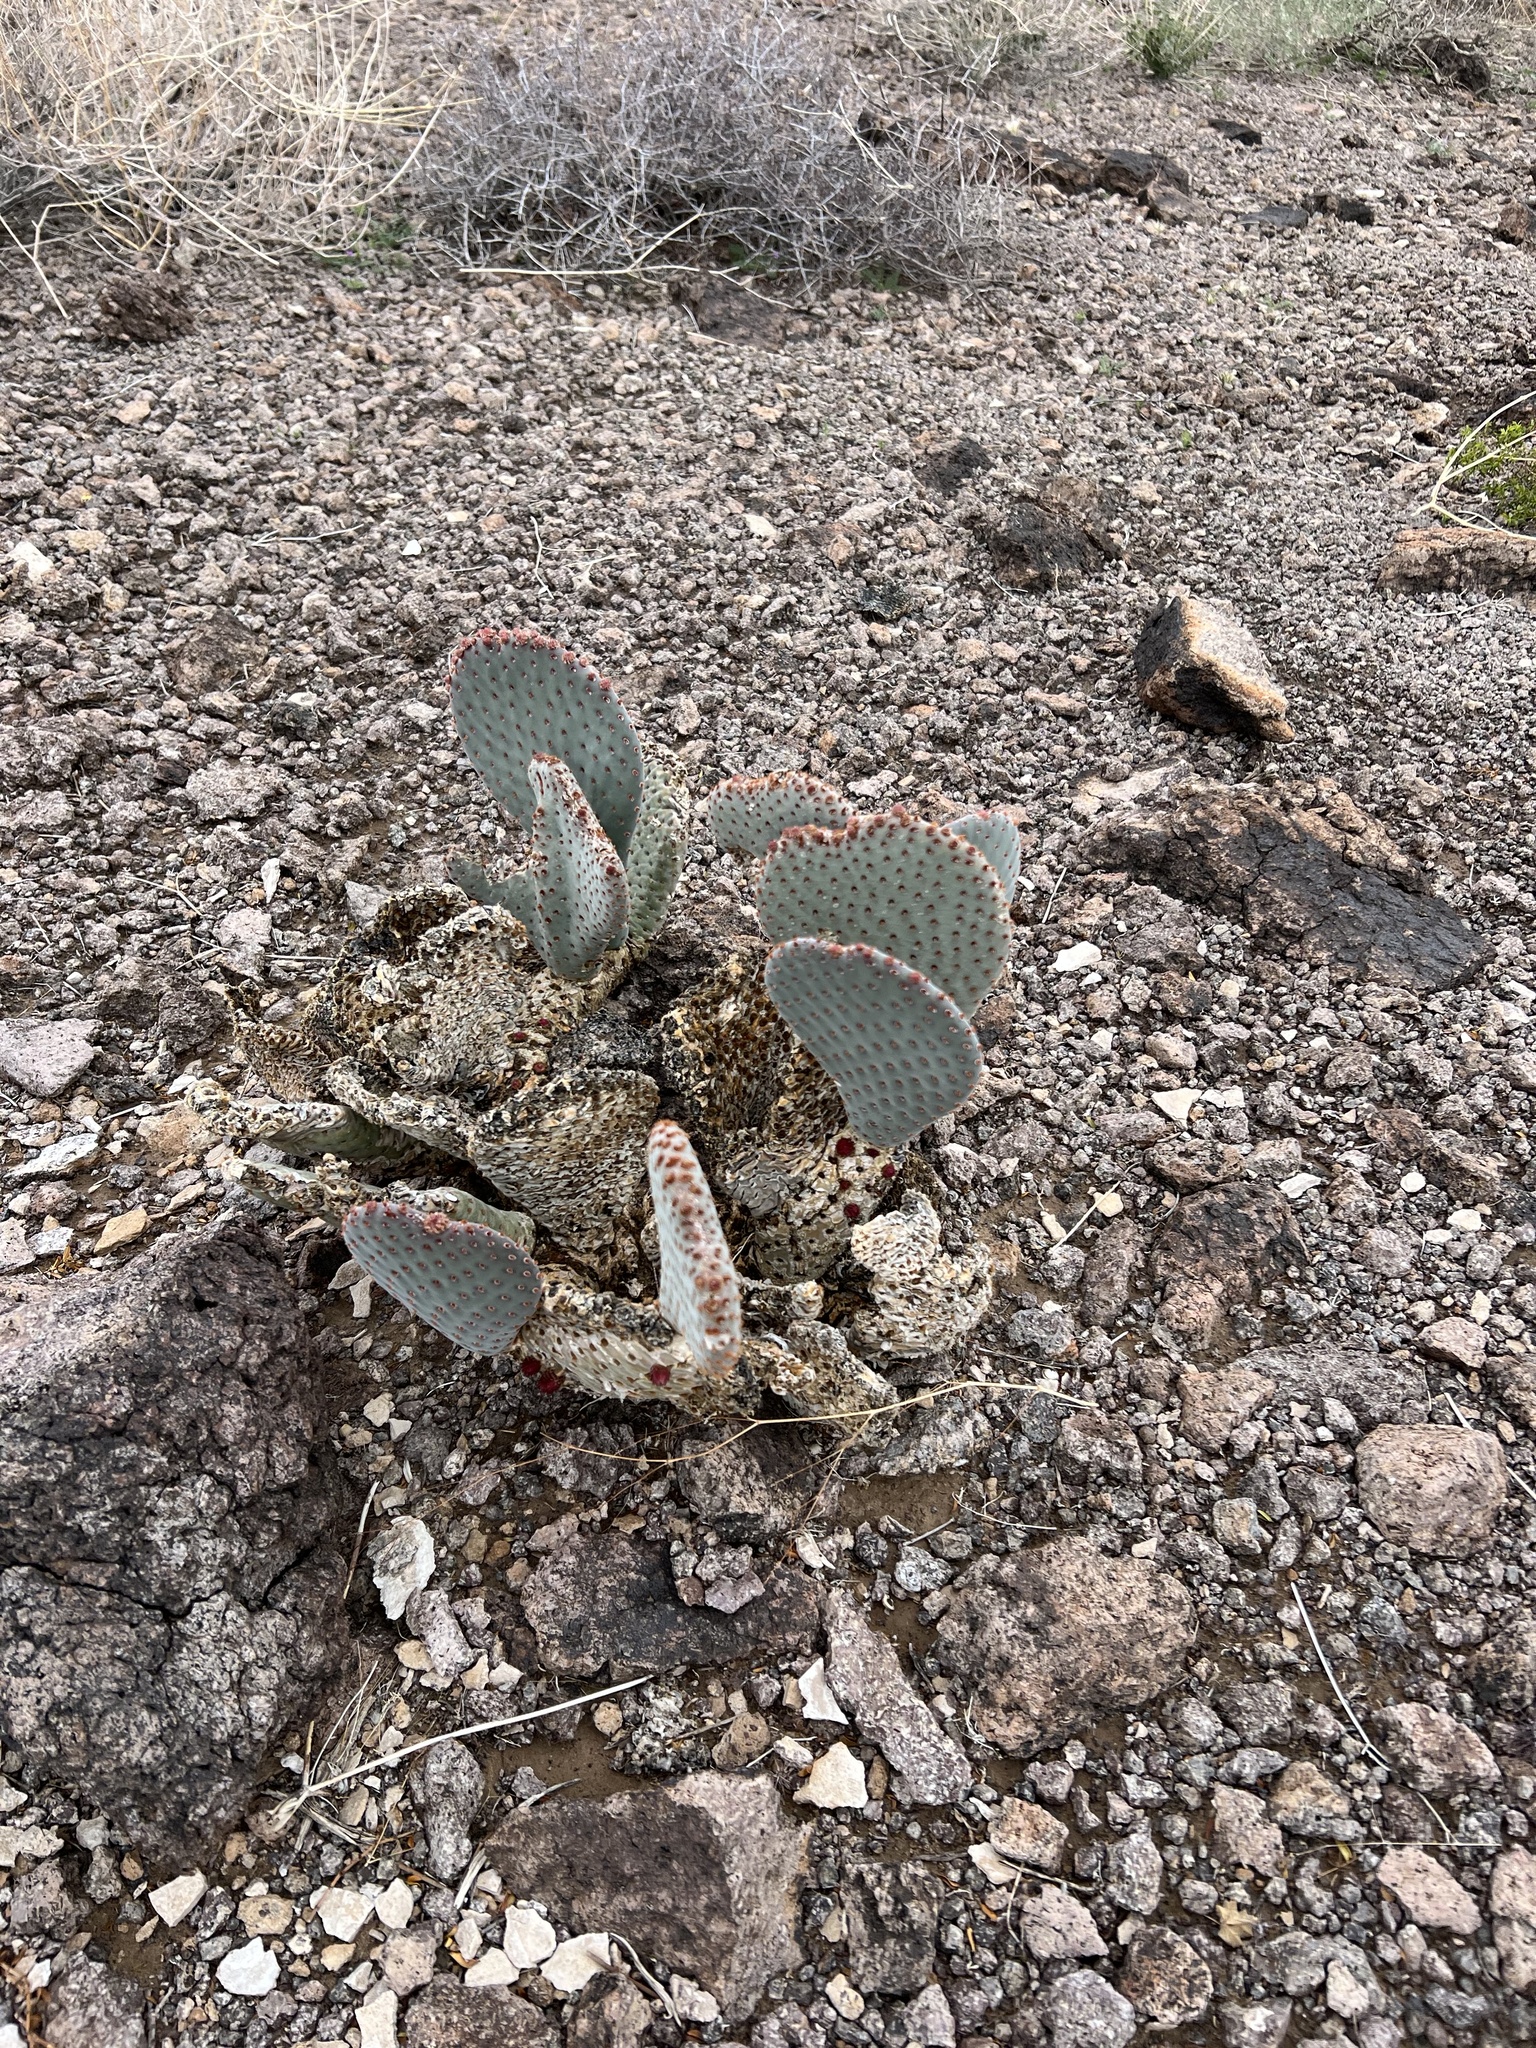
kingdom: Plantae
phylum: Tracheophyta
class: Magnoliopsida
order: Caryophyllales
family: Cactaceae
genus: Opuntia
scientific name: Opuntia basilaris
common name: Beavertail prickly-pear
